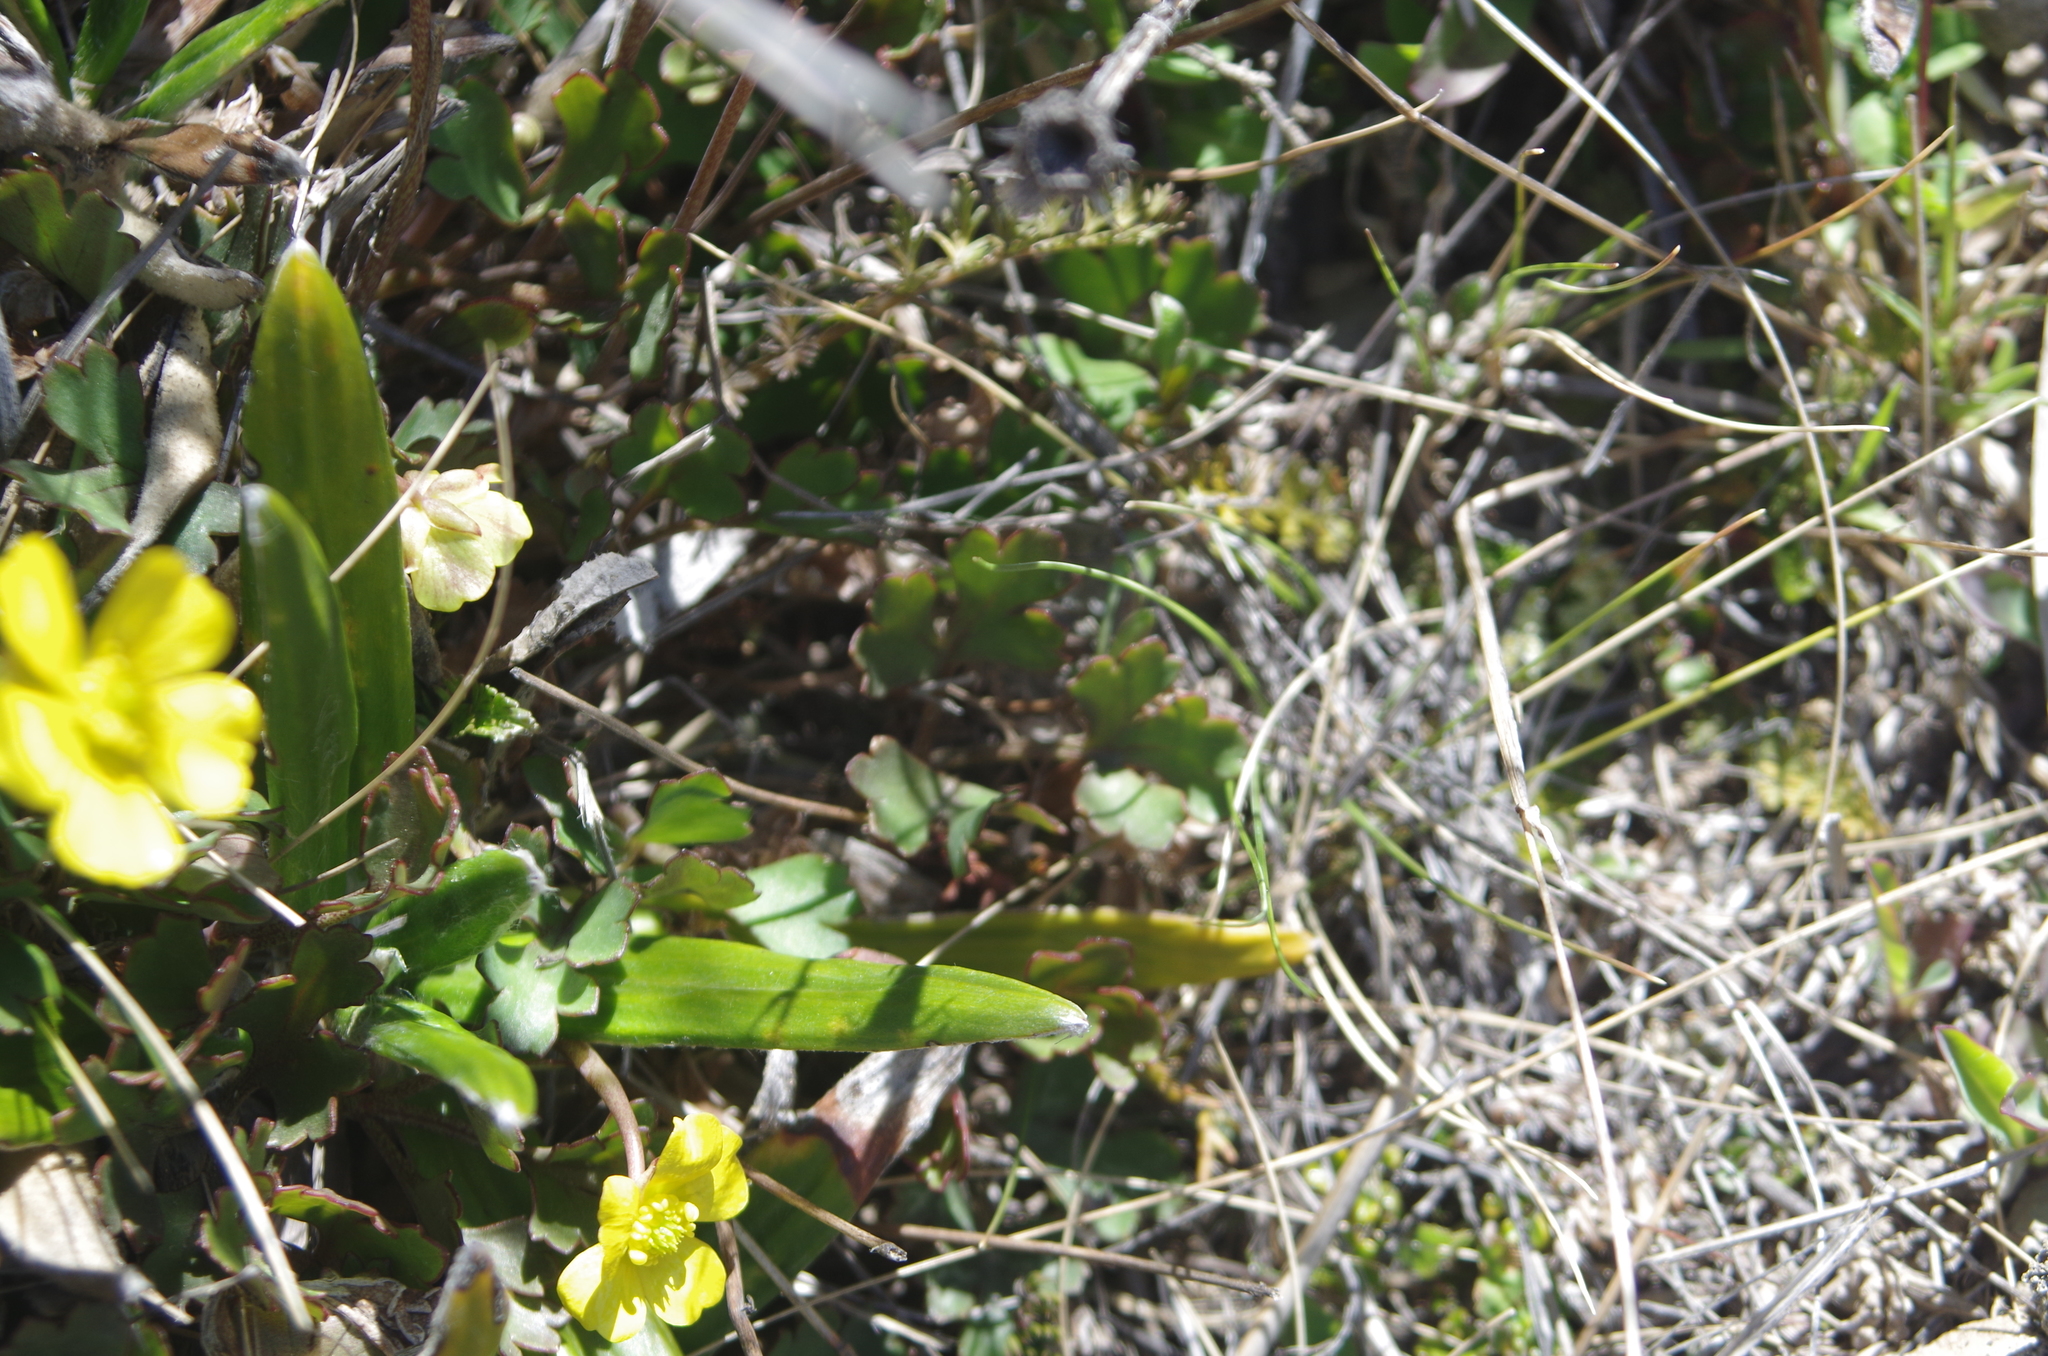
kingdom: Plantae
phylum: Tracheophyta
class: Magnoliopsida
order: Ranunculales
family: Ranunculaceae
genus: Ranunculus
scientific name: Ranunculus enysii
